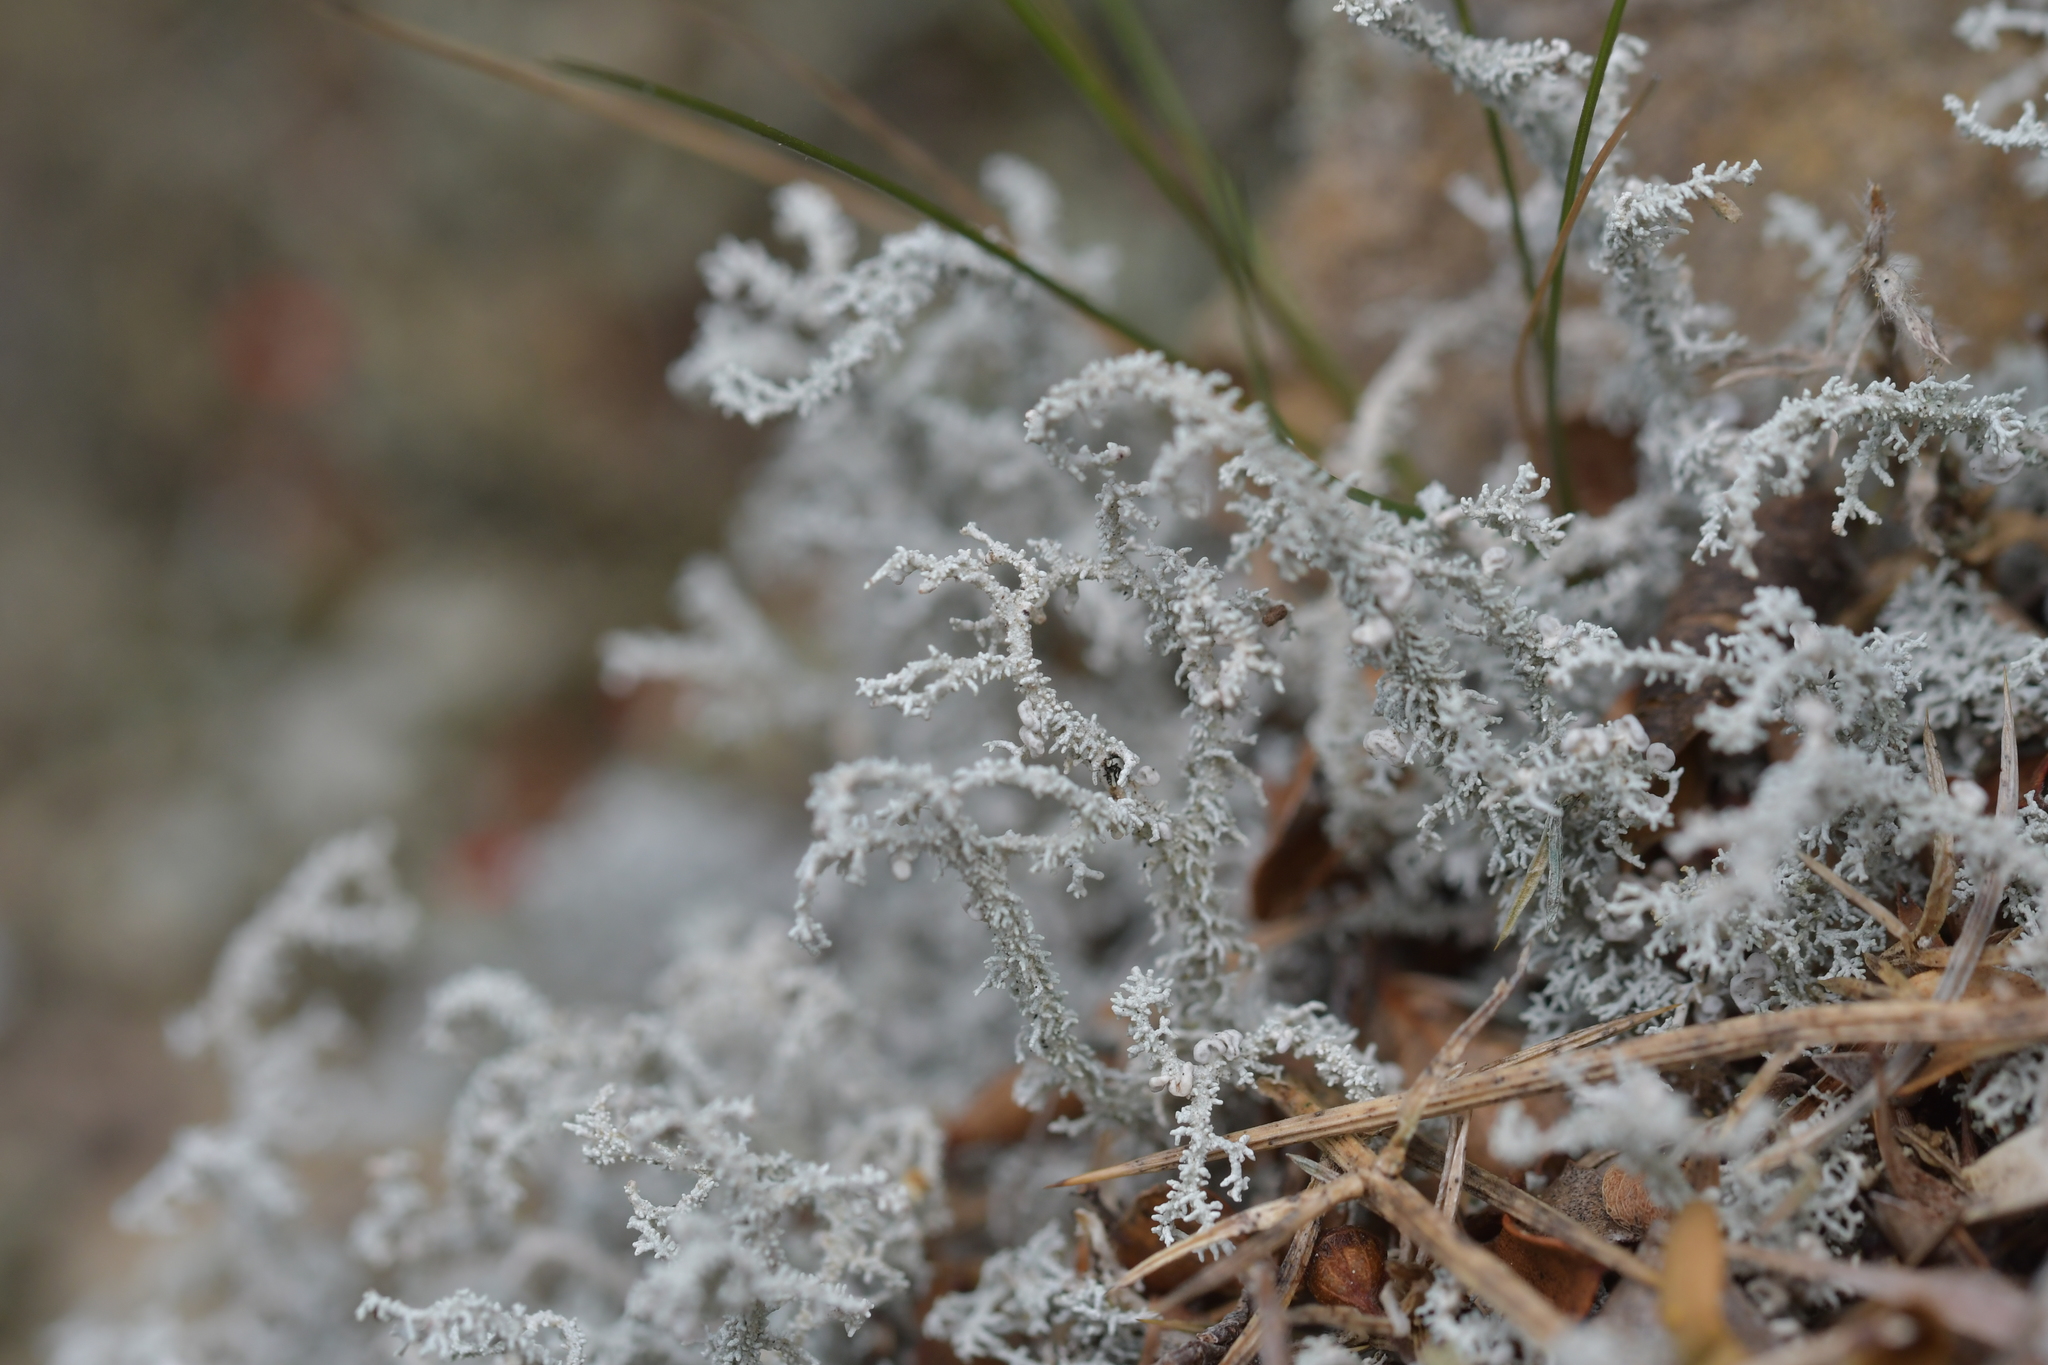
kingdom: Fungi
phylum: Ascomycota
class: Lecanoromycetes
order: Lecanorales
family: Stereocaulaceae
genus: Stereocaulon
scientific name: Stereocaulon ramulosum
